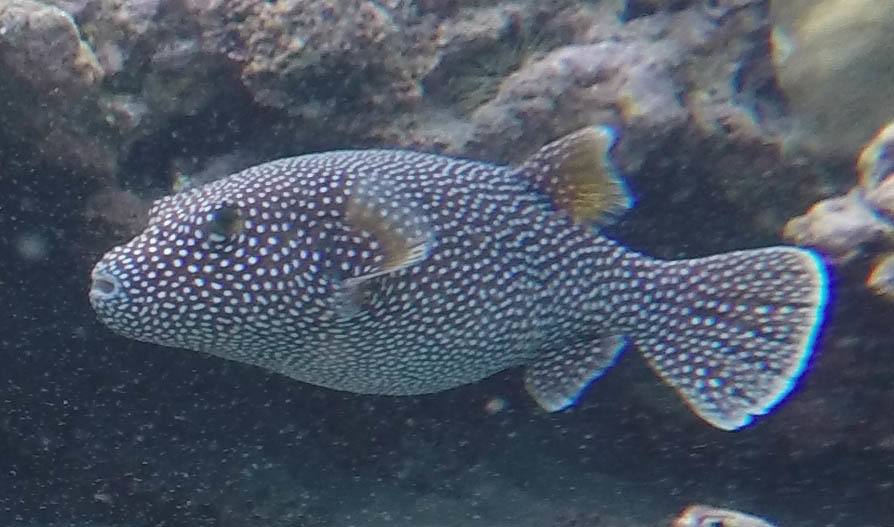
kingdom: Animalia
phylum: Chordata
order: Tetraodontiformes
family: Tetraodontidae
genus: Arothron
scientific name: Arothron meleagris
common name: Guinea-fowl pufferfish
